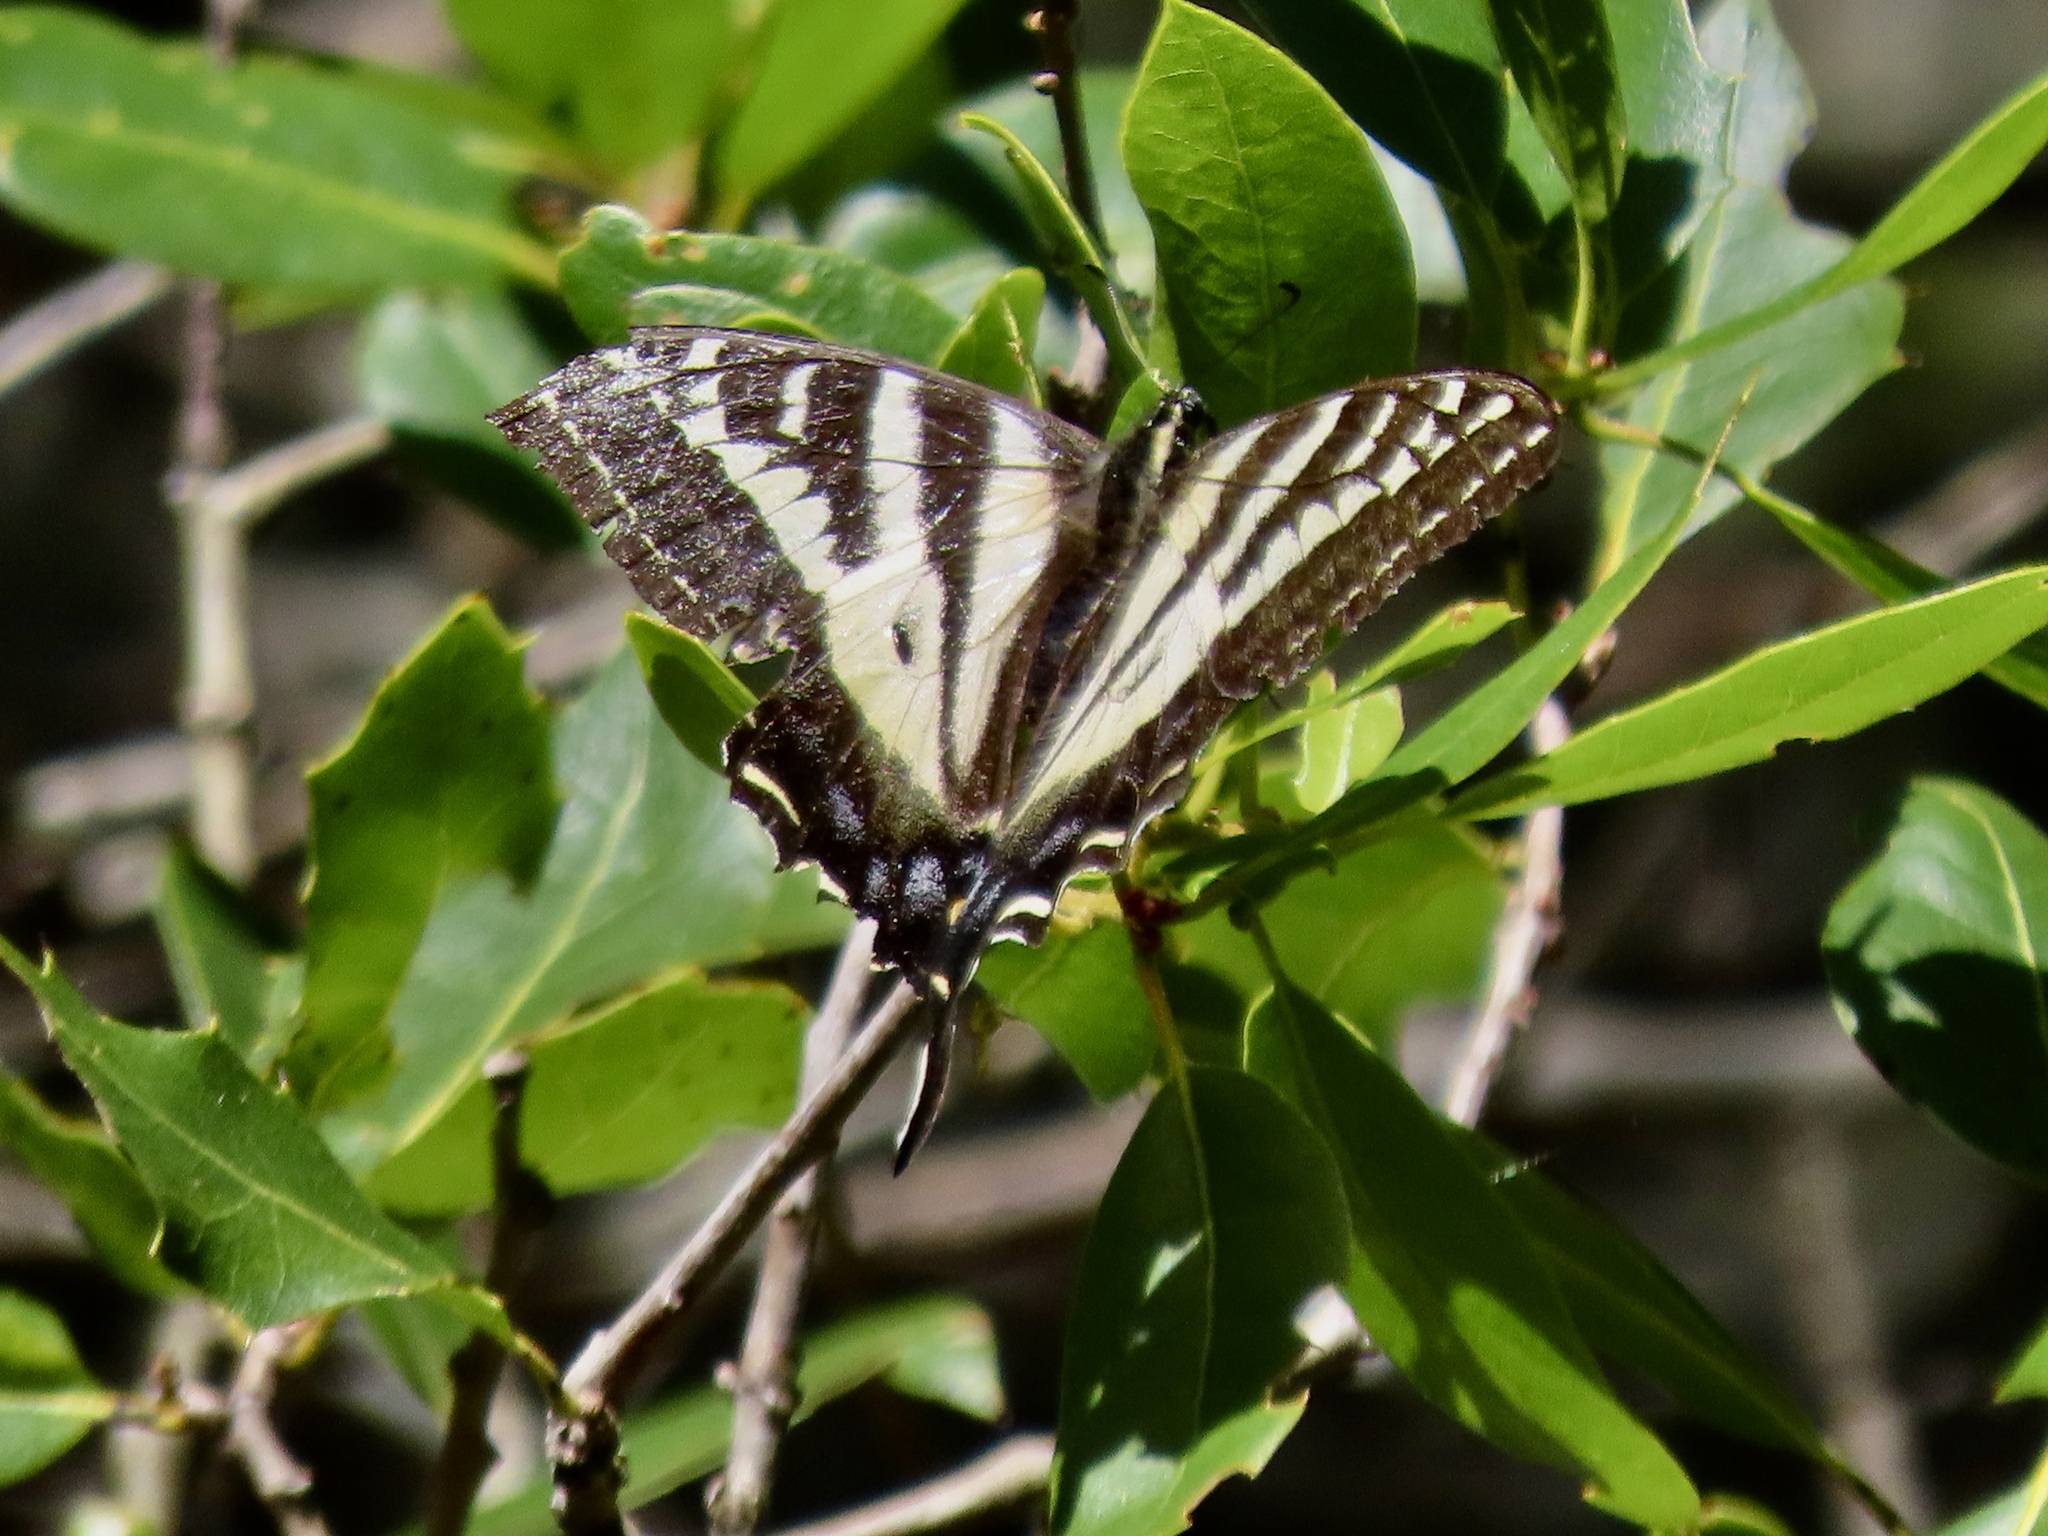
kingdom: Animalia
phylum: Arthropoda
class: Insecta
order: Lepidoptera
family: Papilionidae
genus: Papilio
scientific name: Papilio eurymedon
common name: Pale tiger swallowtail
